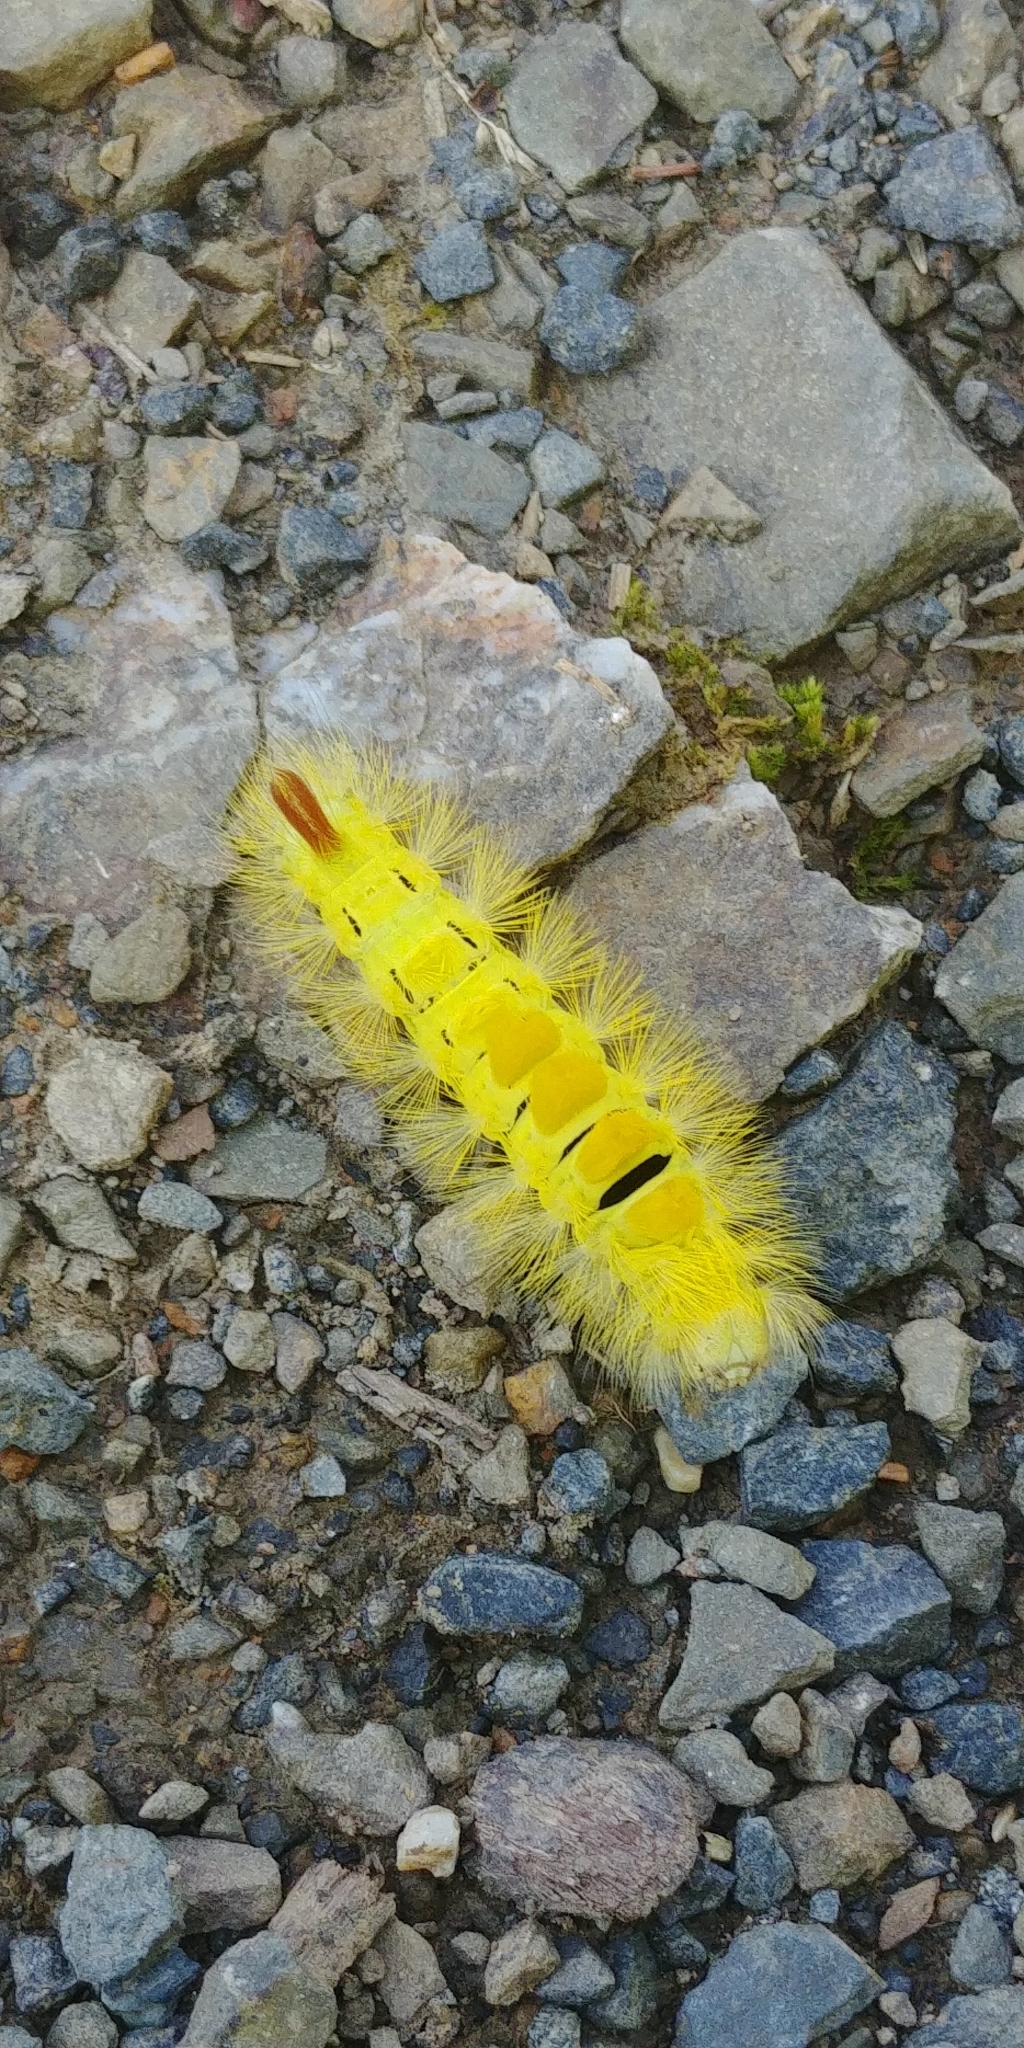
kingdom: Animalia
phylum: Arthropoda
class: Insecta
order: Lepidoptera
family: Erebidae
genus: Calliteara
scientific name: Calliteara pudibunda
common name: Pale tussock
